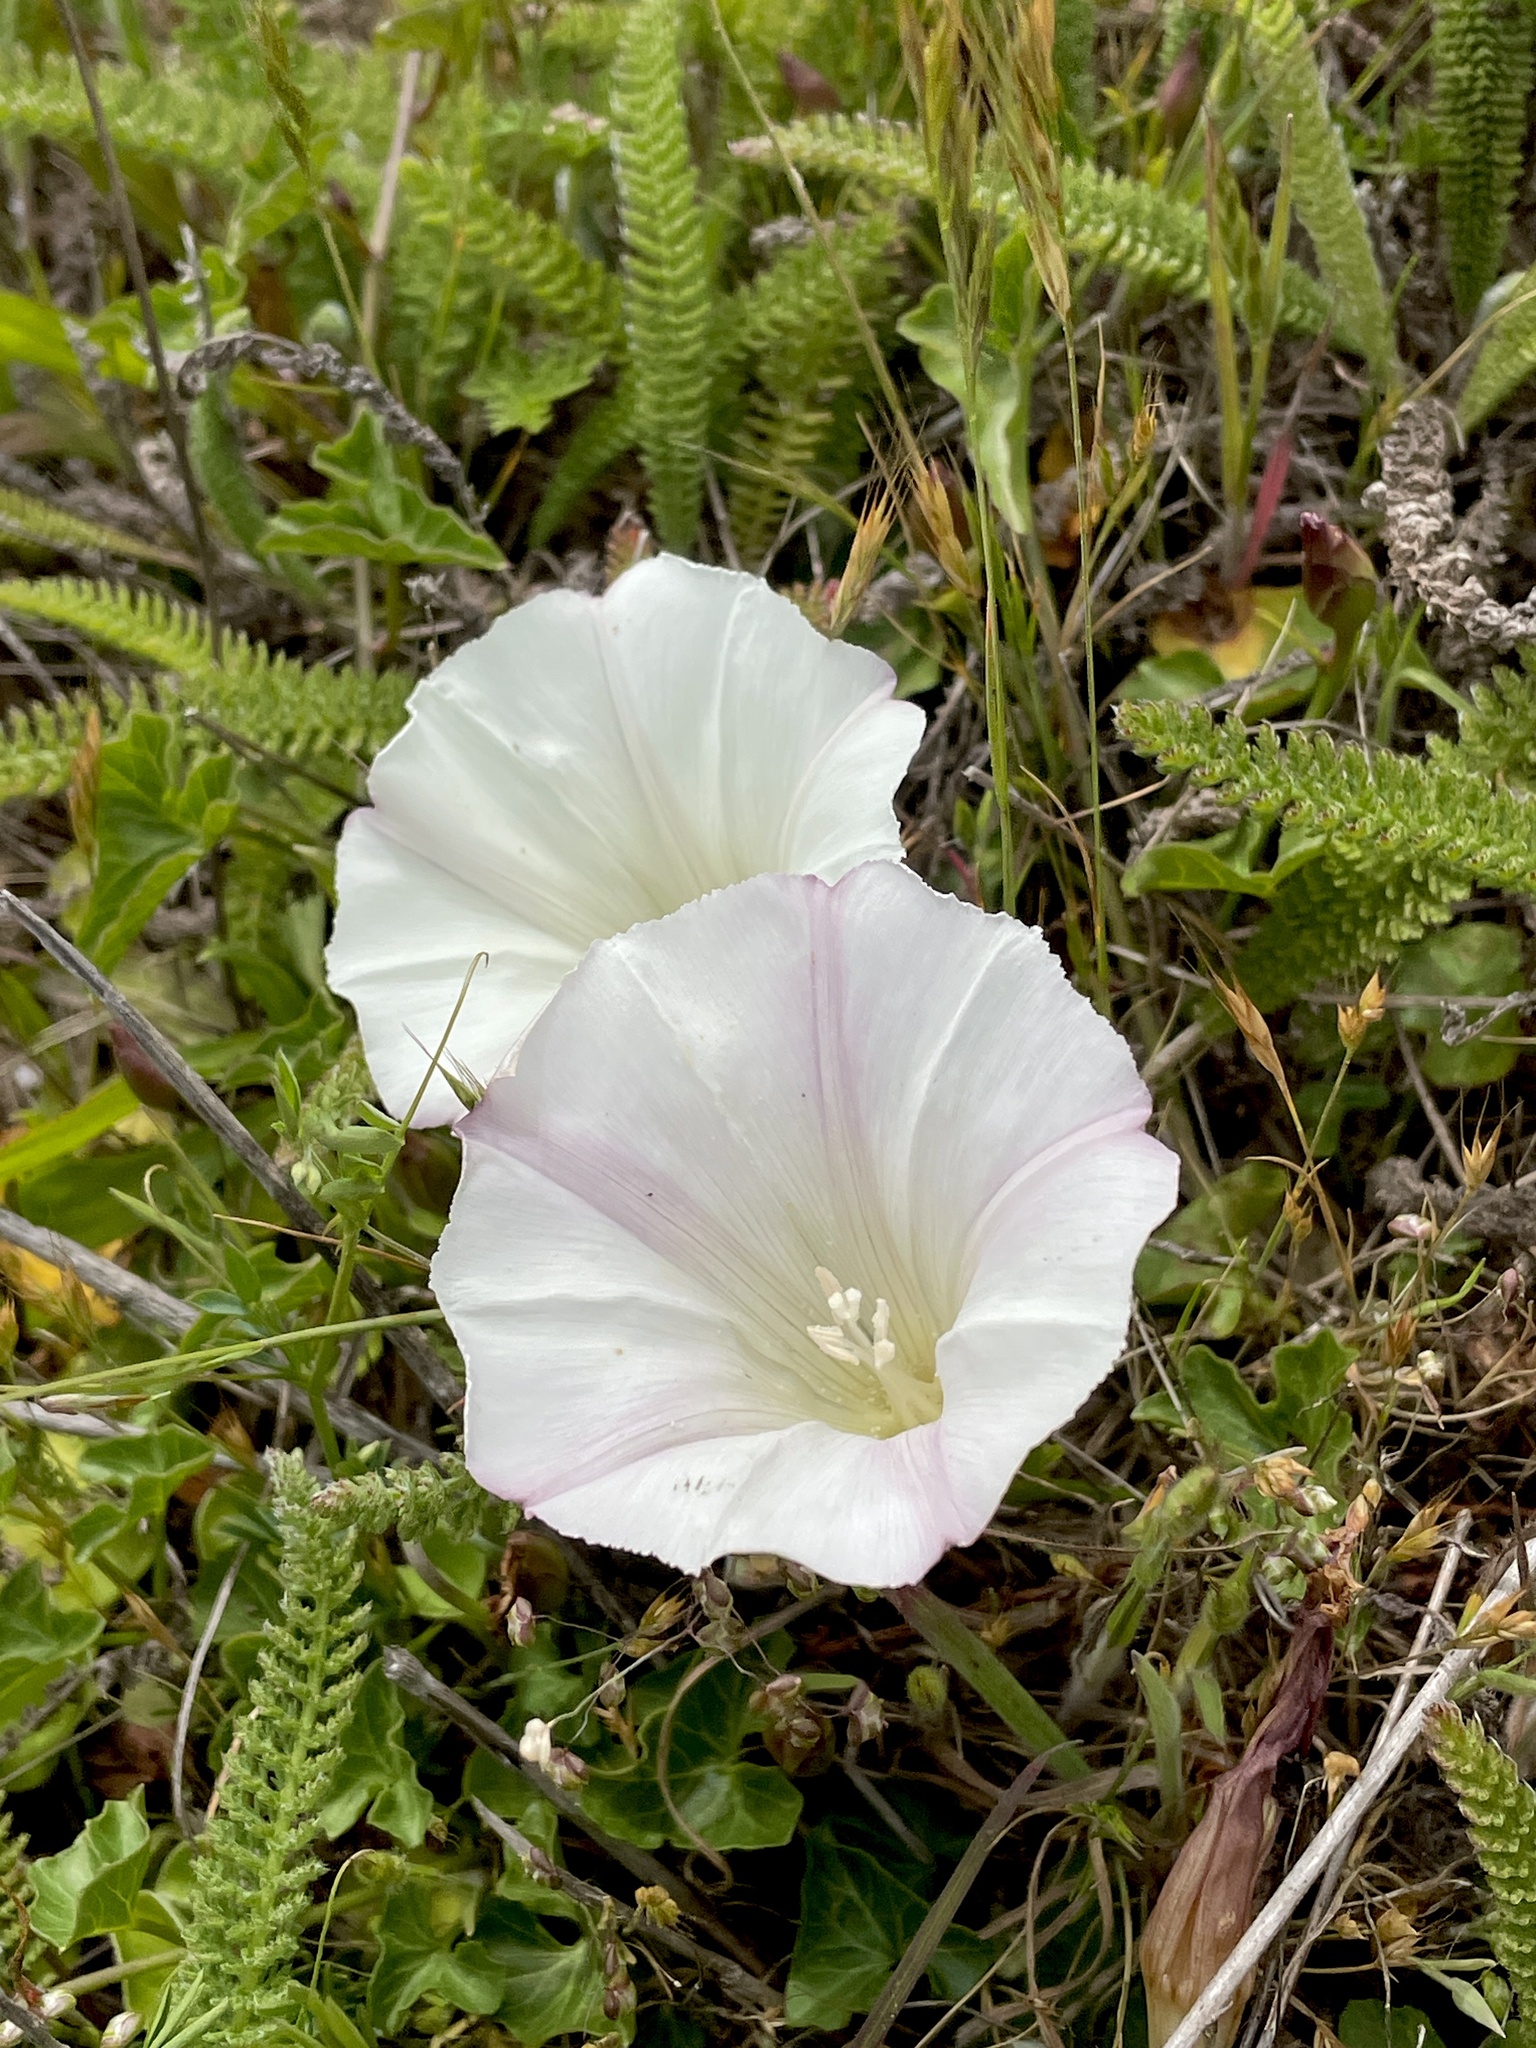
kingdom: Plantae
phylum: Tracheophyta
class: Magnoliopsida
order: Solanales
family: Convolvulaceae
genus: Calystegia
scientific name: Calystegia purpurata
